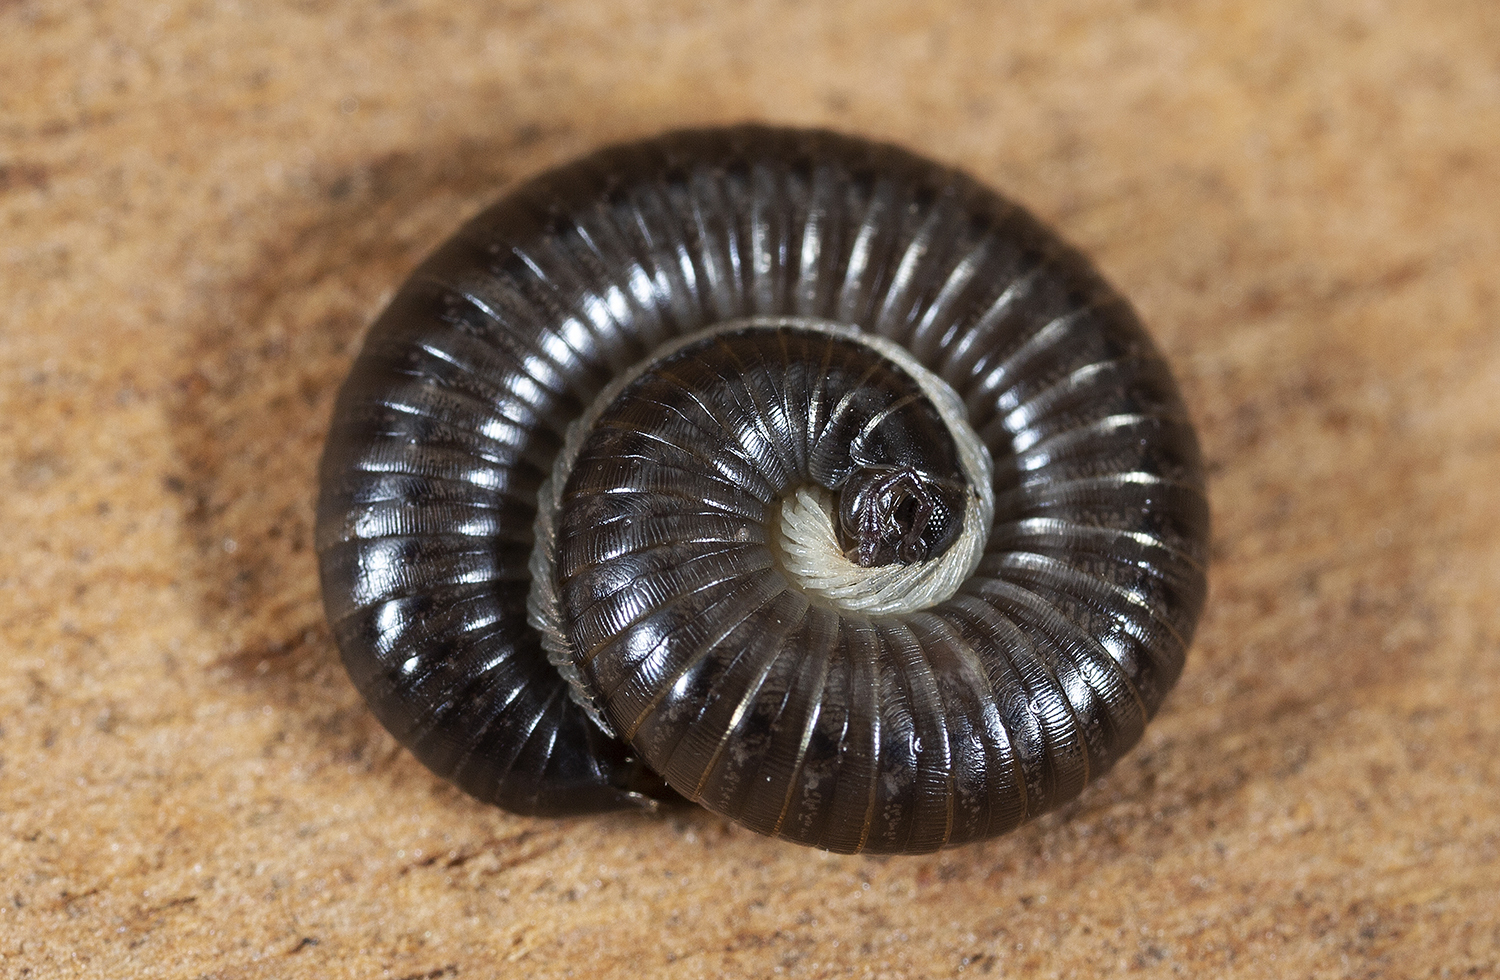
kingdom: Animalia
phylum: Arthropoda
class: Diplopoda
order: Julida
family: Julidae
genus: Ommatoiulus
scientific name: Ommatoiulus moreleti
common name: Portuguese millipede
